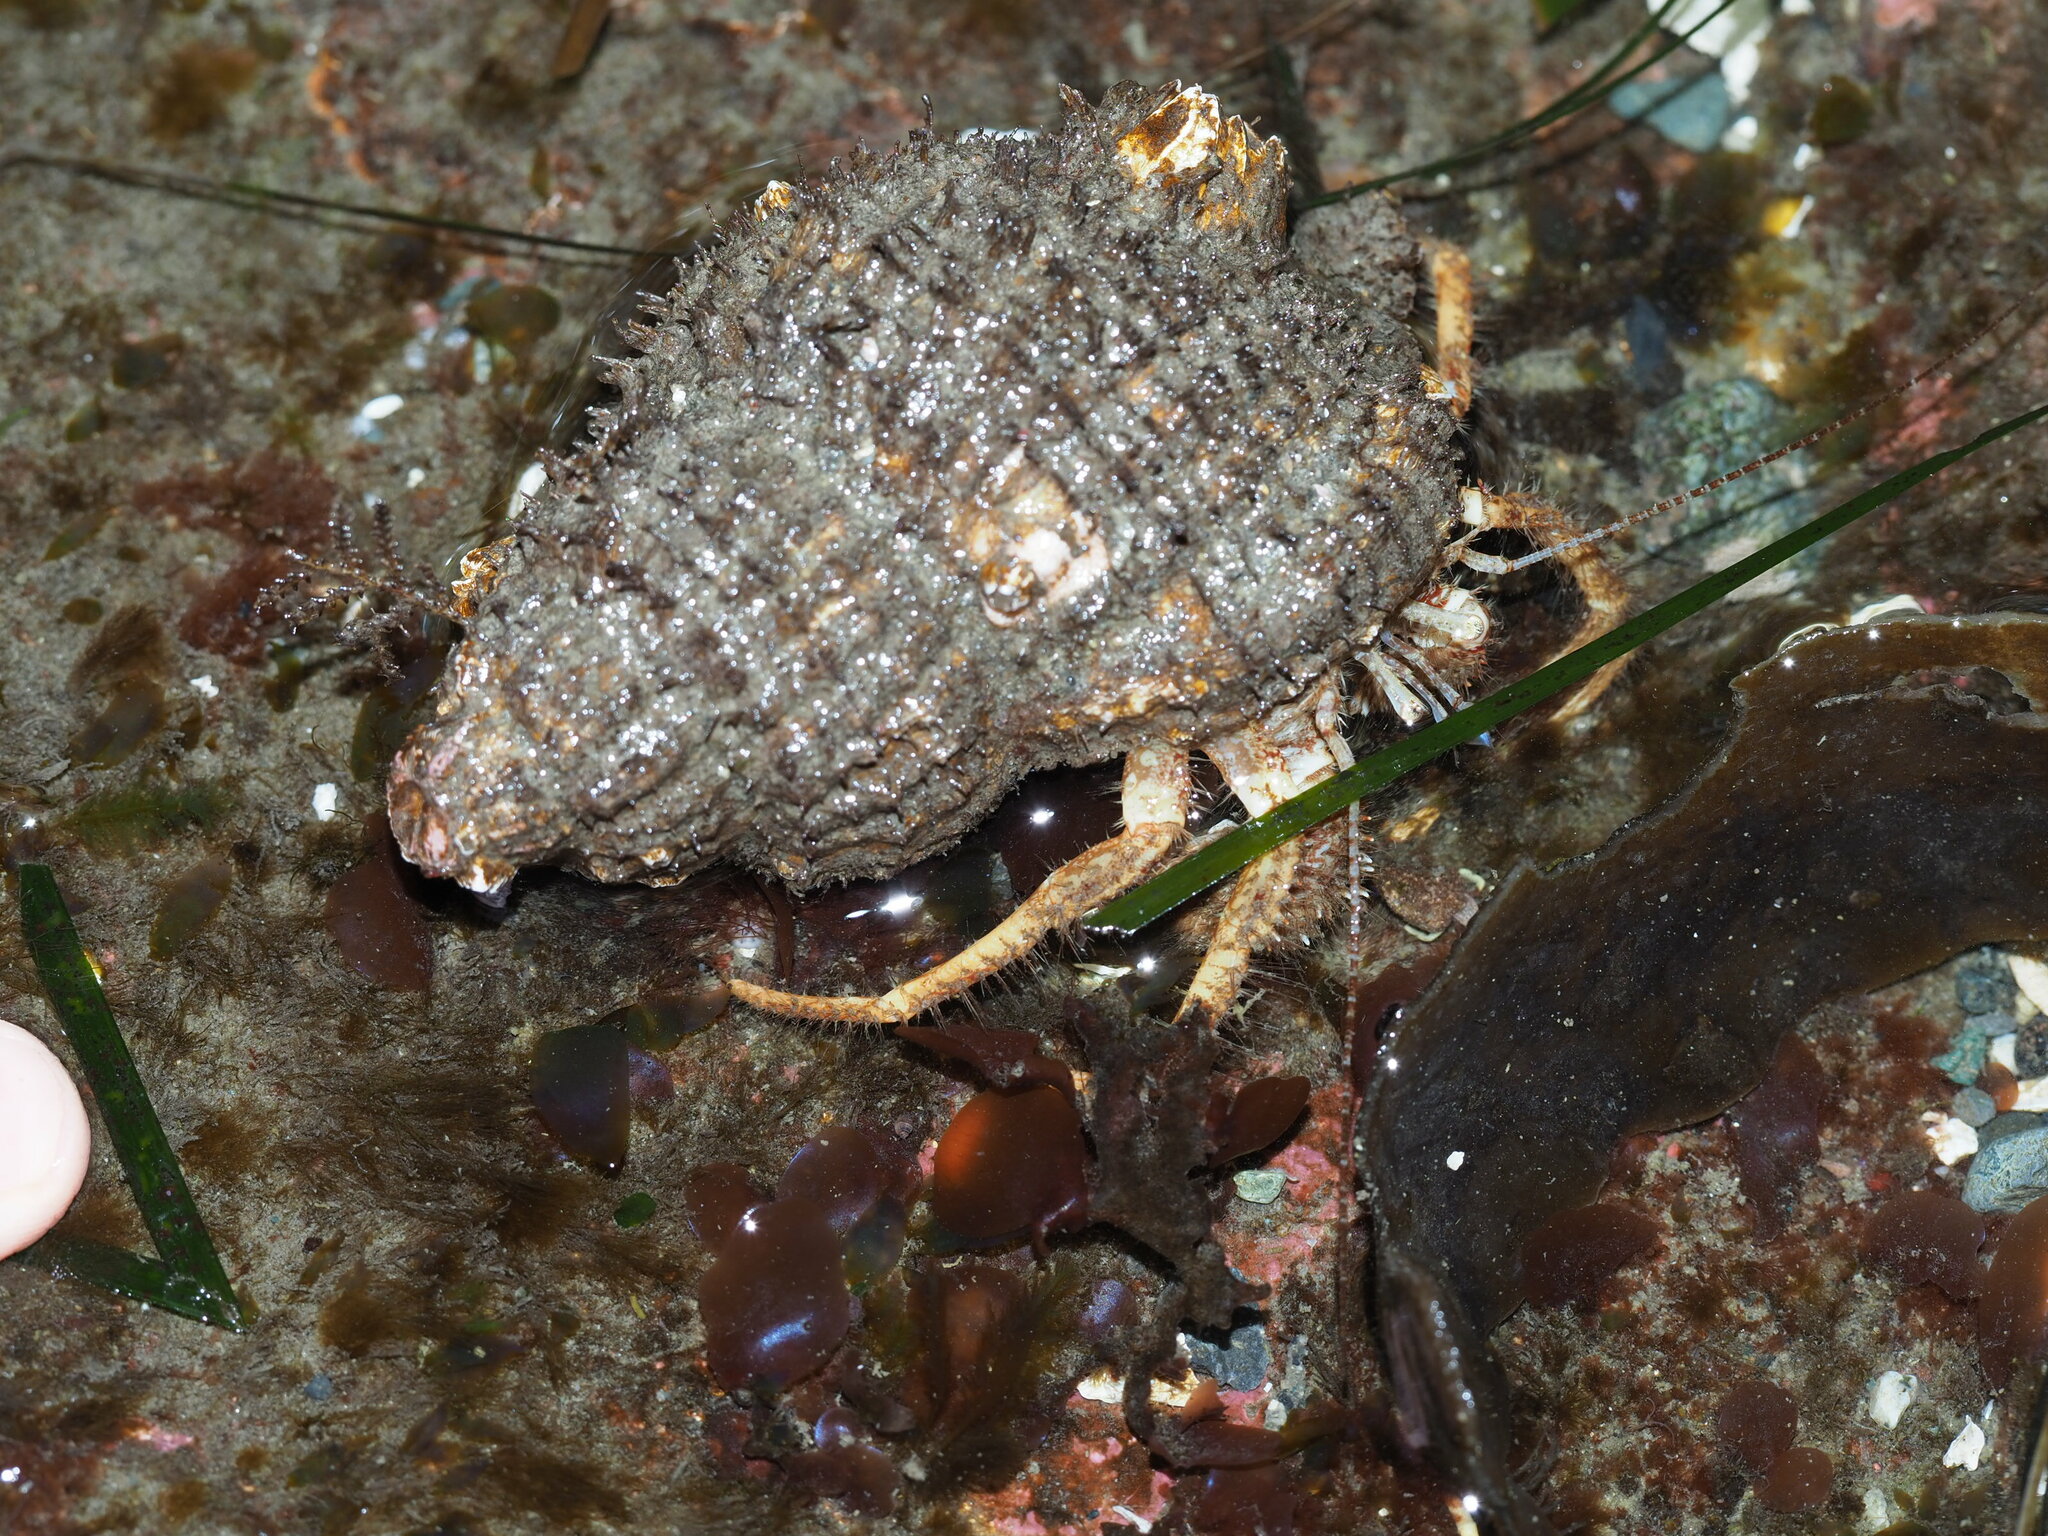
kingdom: Animalia
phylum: Arthropoda
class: Malacostraca
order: Decapoda
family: Paguridae
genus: Pagurus
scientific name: Pagurus kennerlyi
